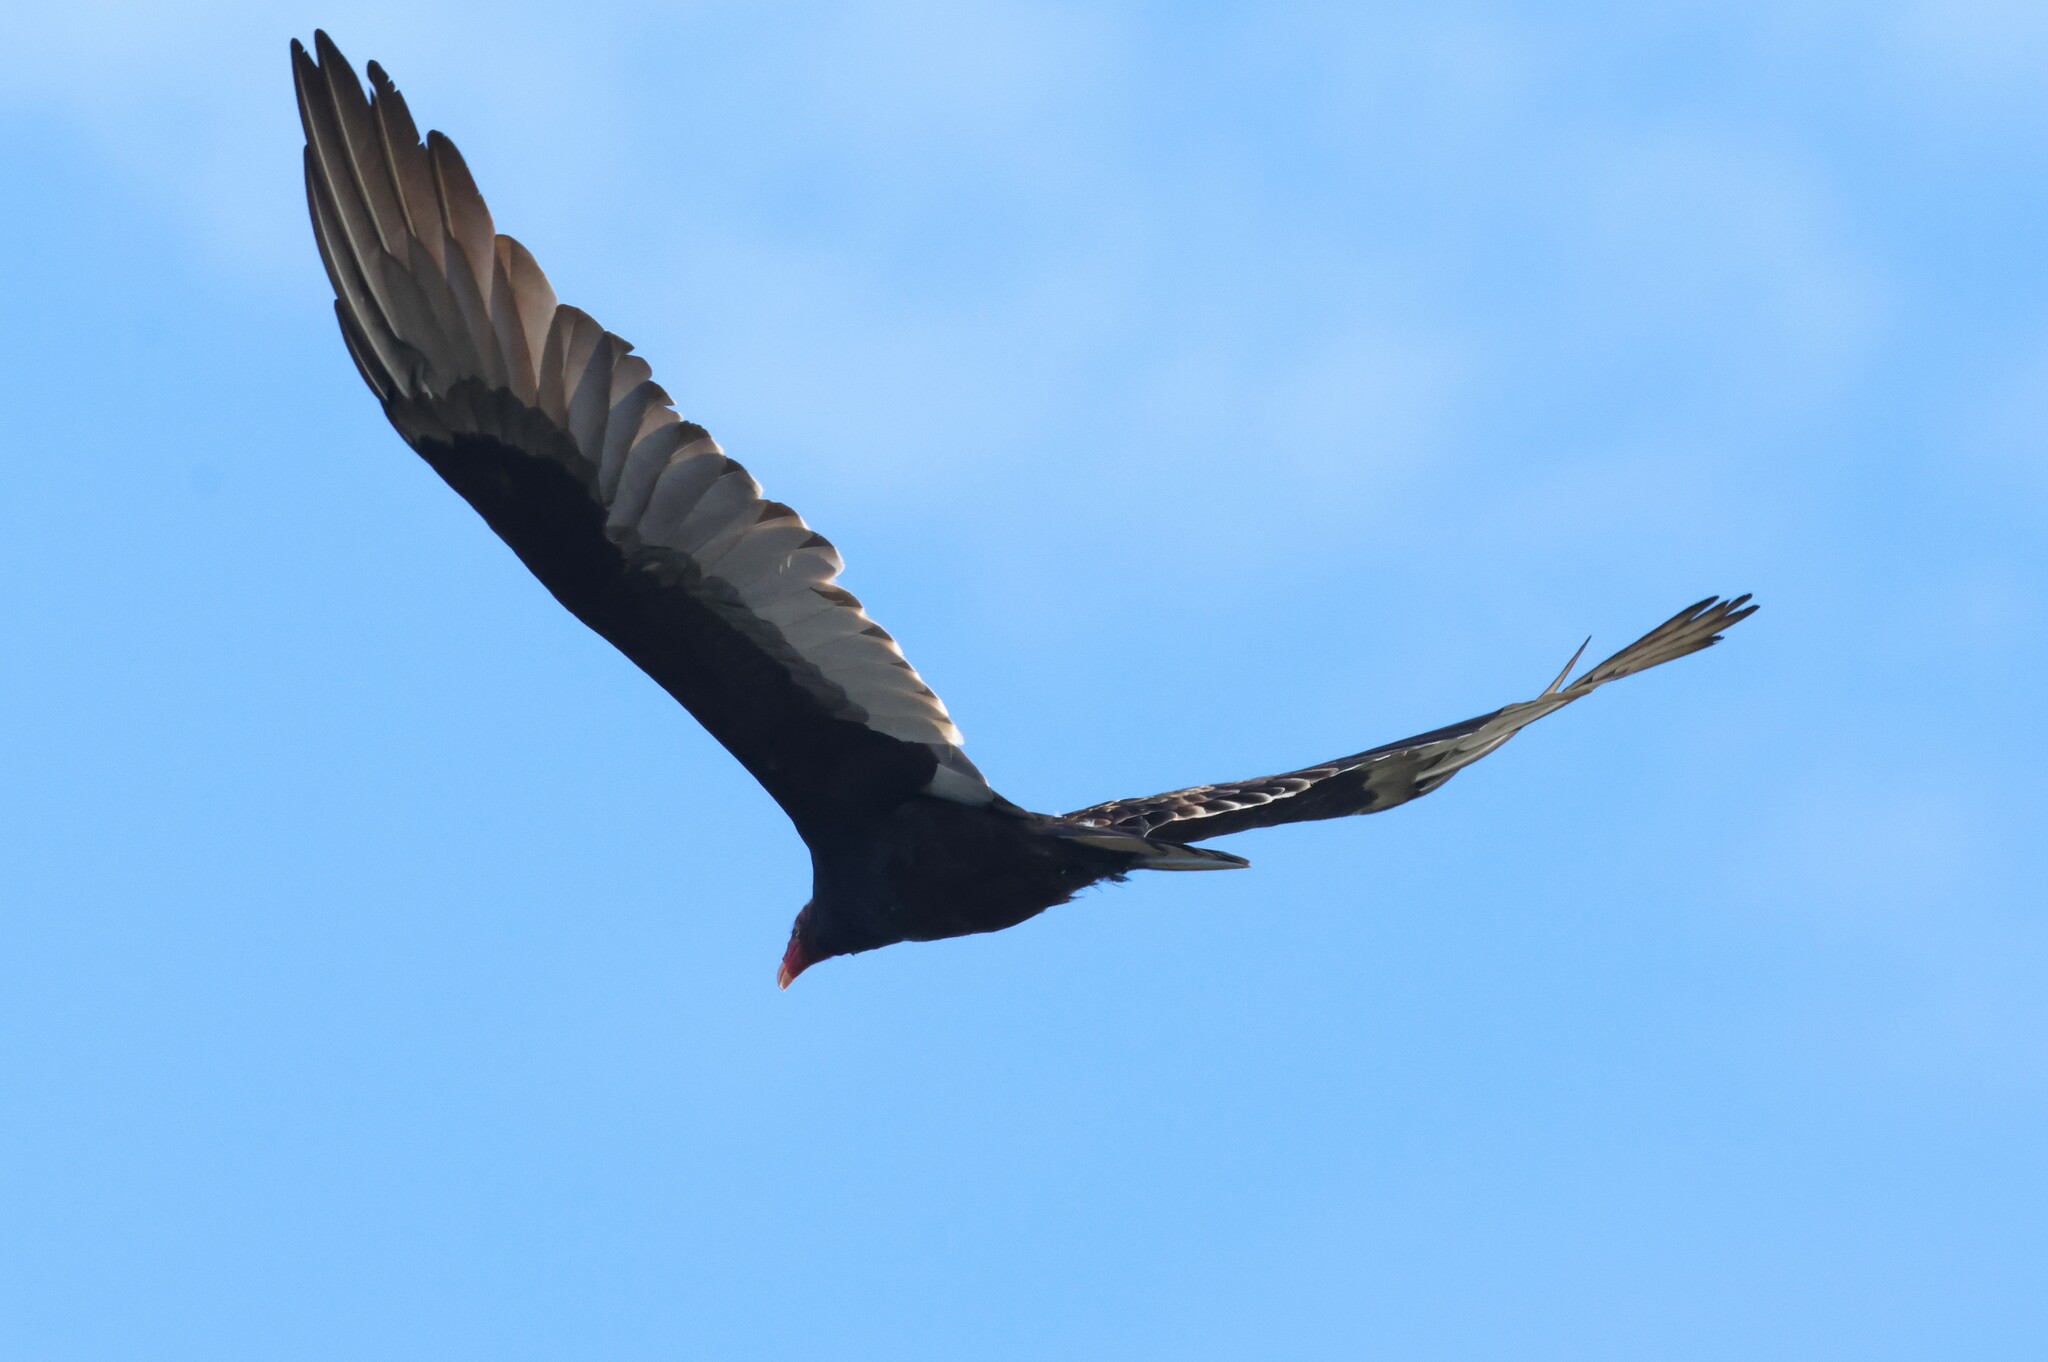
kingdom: Animalia
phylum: Chordata
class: Aves
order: Accipitriformes
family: Cathartidae
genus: Cathartes
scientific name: Cathartes aura
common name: Turkey vulture
